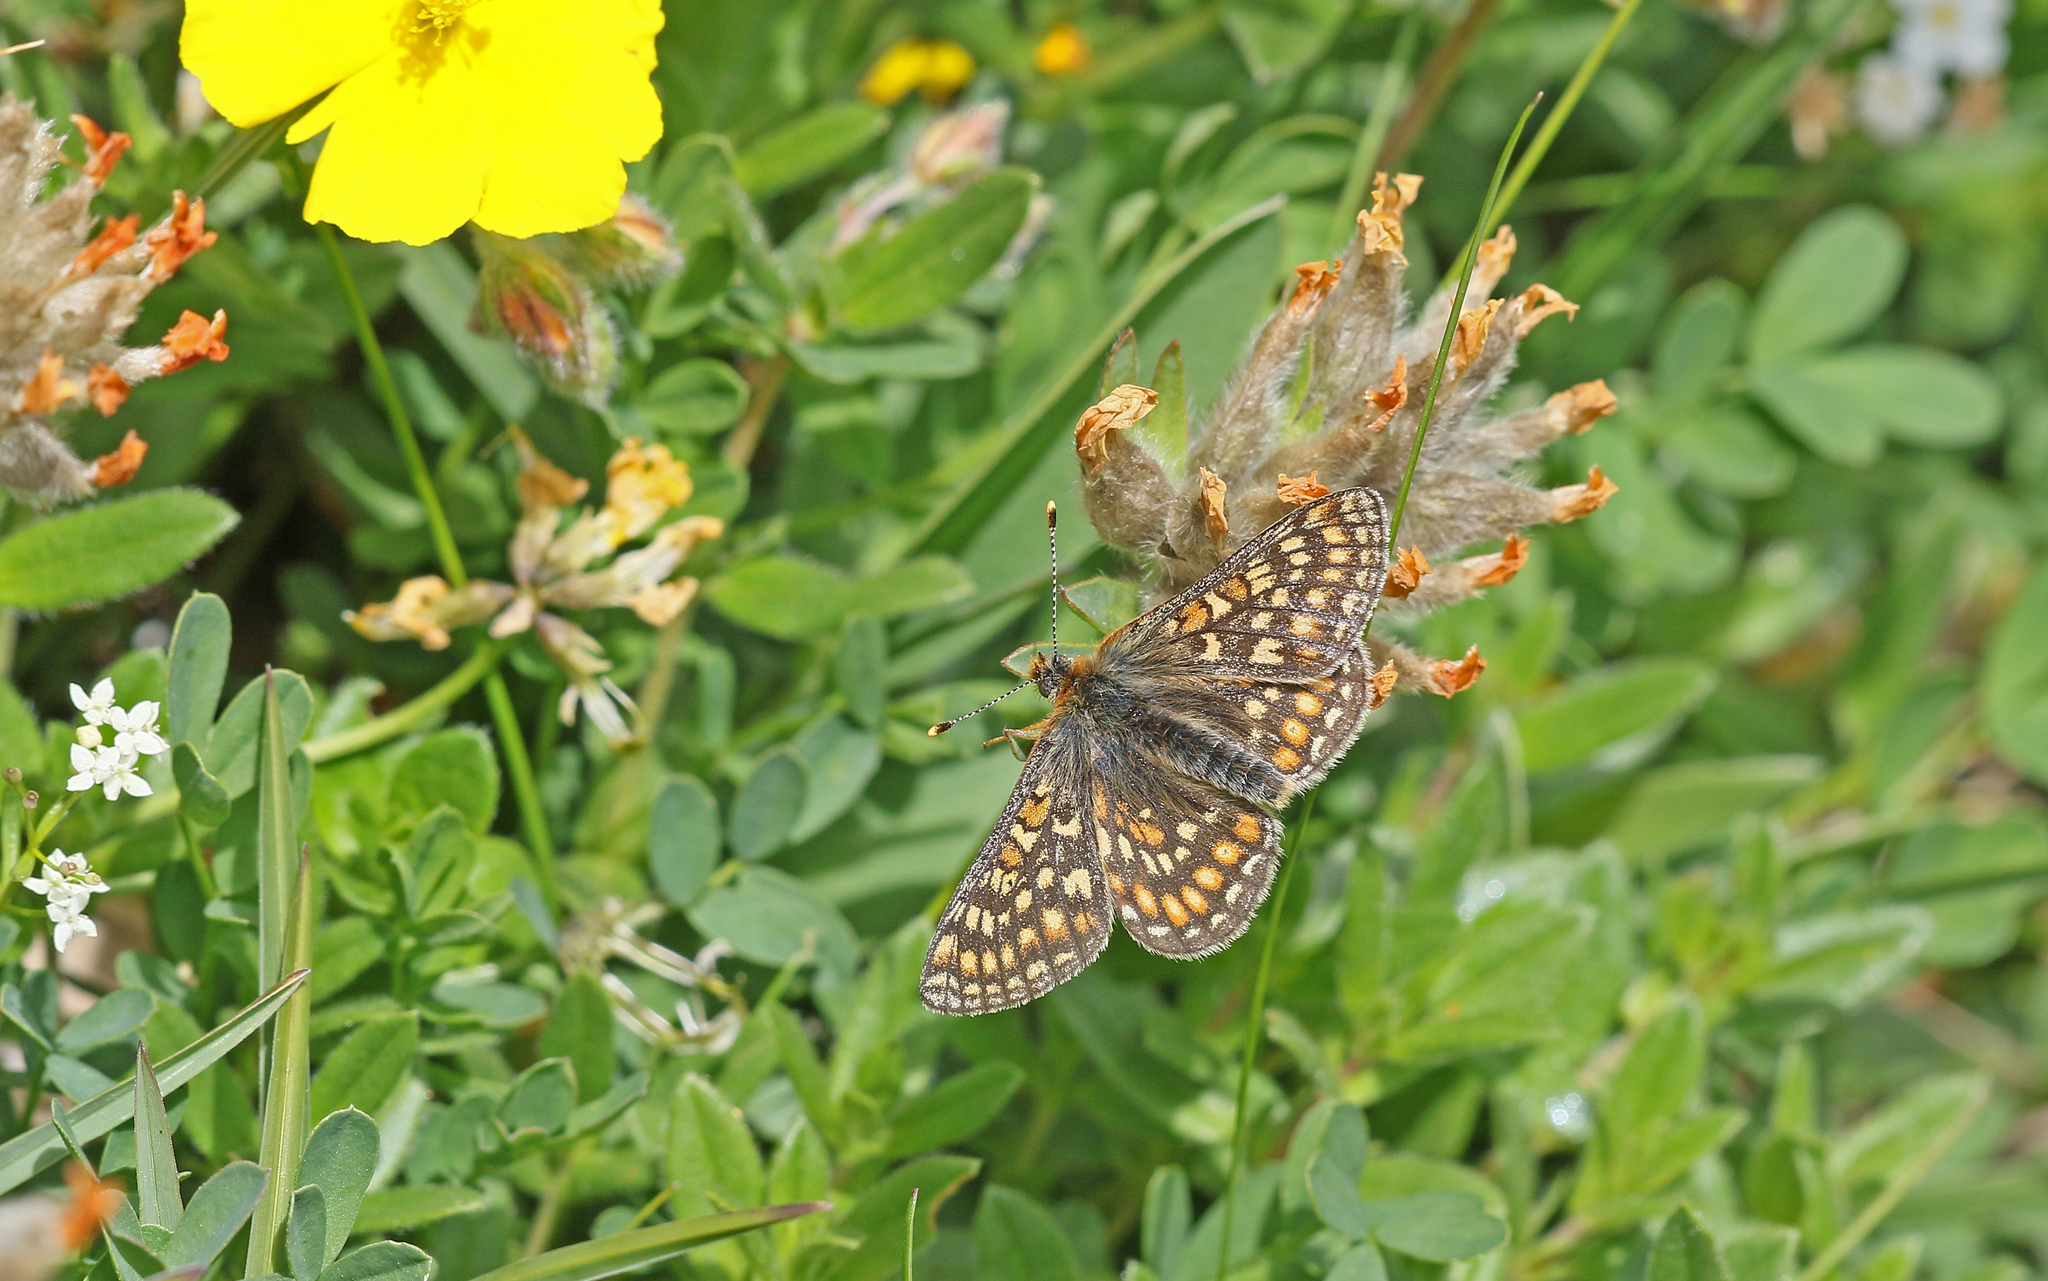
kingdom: Animalia
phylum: Arthropoda
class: Insecta
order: Lepidoptera
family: Nymphalidae
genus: Euphydryas
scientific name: Euphydryas aurinia
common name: Marsh fritillary
